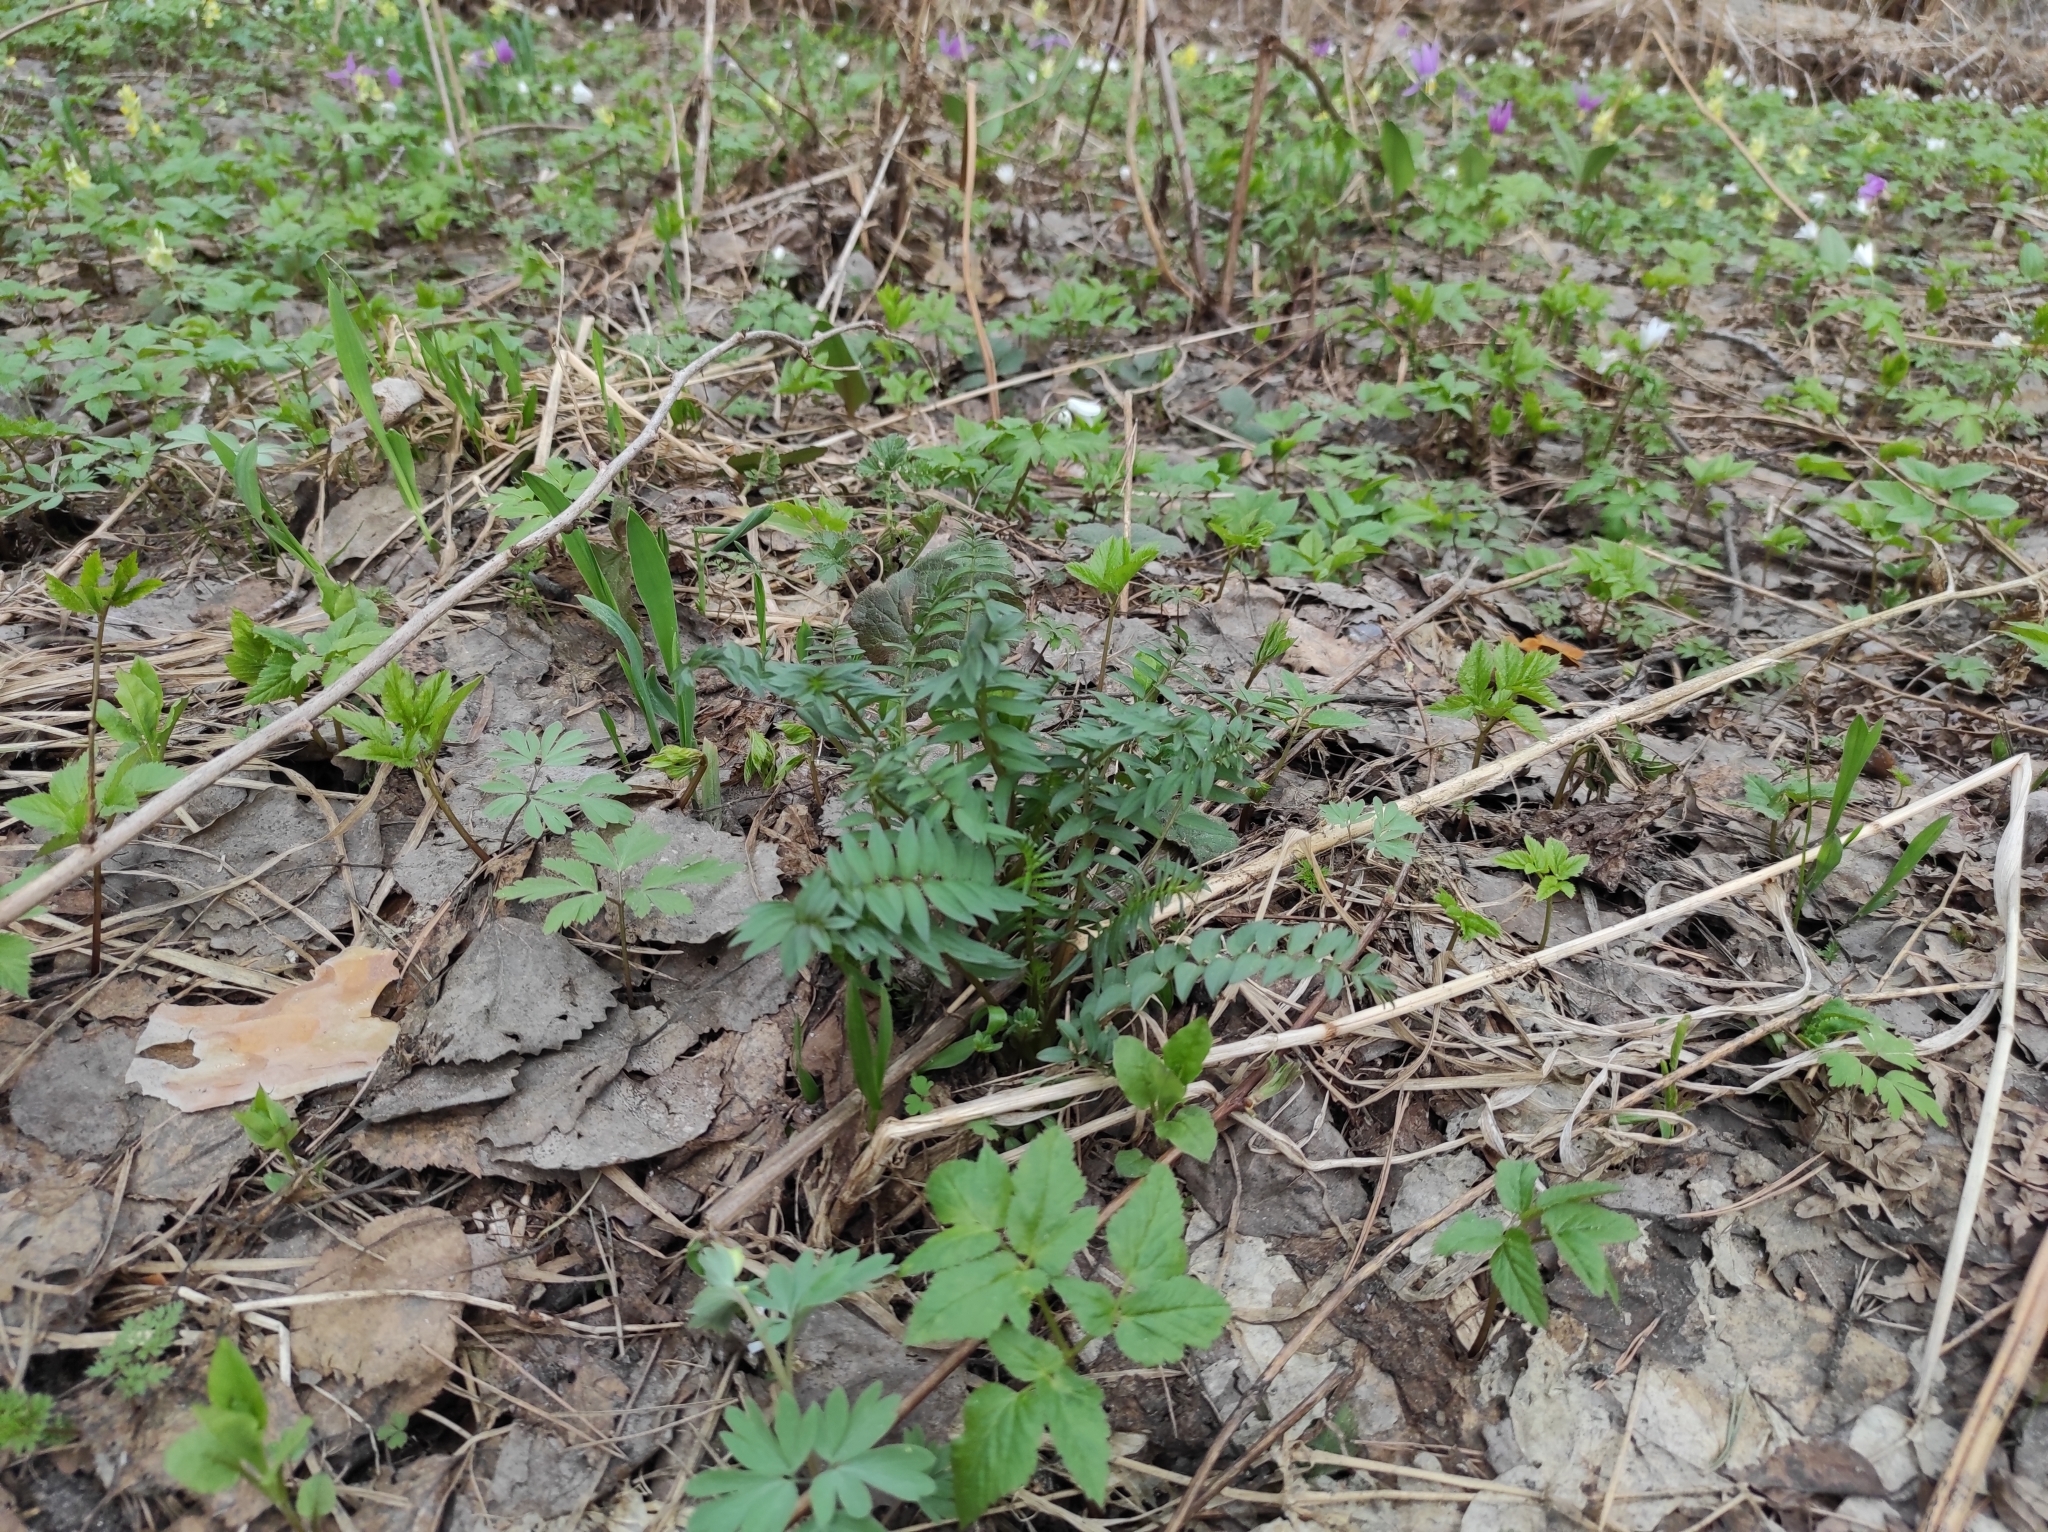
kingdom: Plantae
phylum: Tracheophyta
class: Magnoliopsida
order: Apiales
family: Apiaceae
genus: Aegopodium
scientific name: Aegopodium podagraria
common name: Ground-elder
